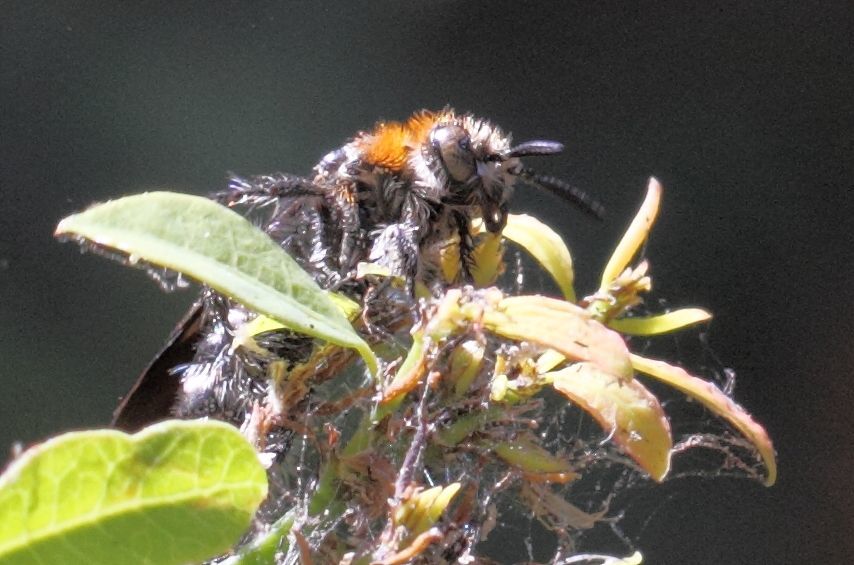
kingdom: Animalia
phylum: Arthropoda
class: Insecta
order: Hymenoptera
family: Scoliidae
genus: Cathimeris
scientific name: Cathimeris
